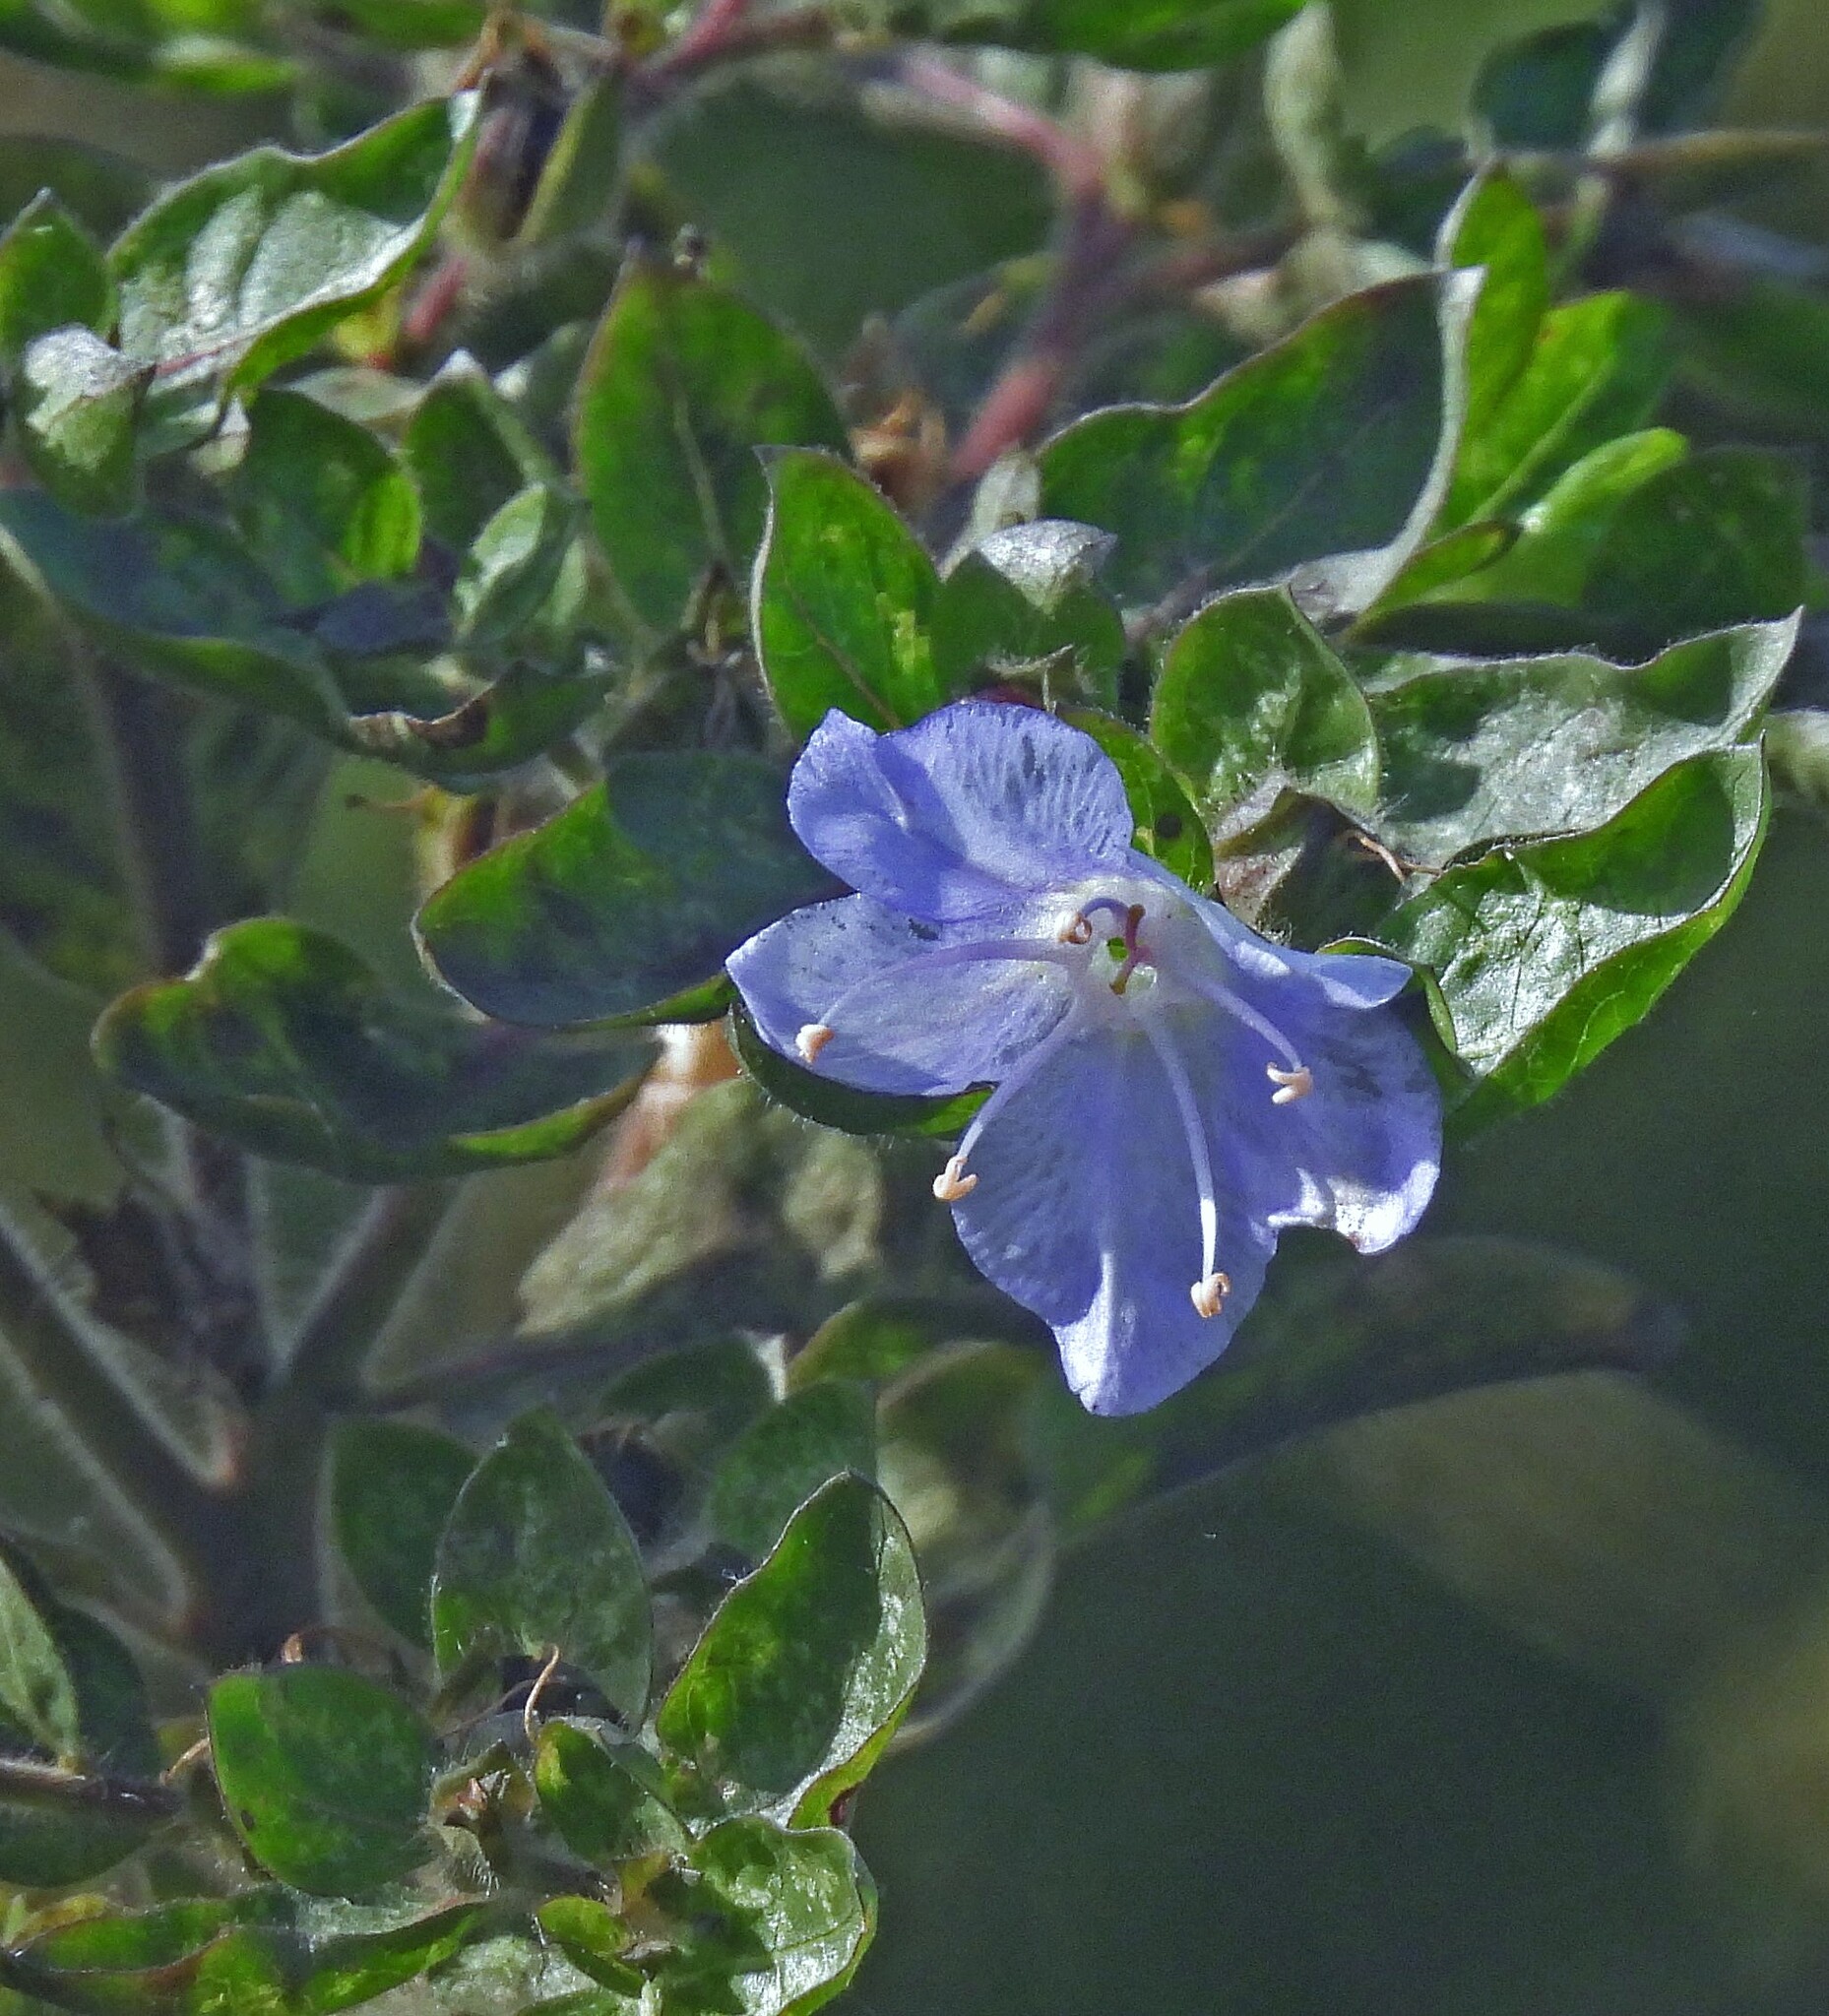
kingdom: Plantae
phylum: Tracheophyta
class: Magnoliopsida
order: Solanales
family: Hydroleaceae
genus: Hydrolea
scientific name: Hydrolea spinosa
